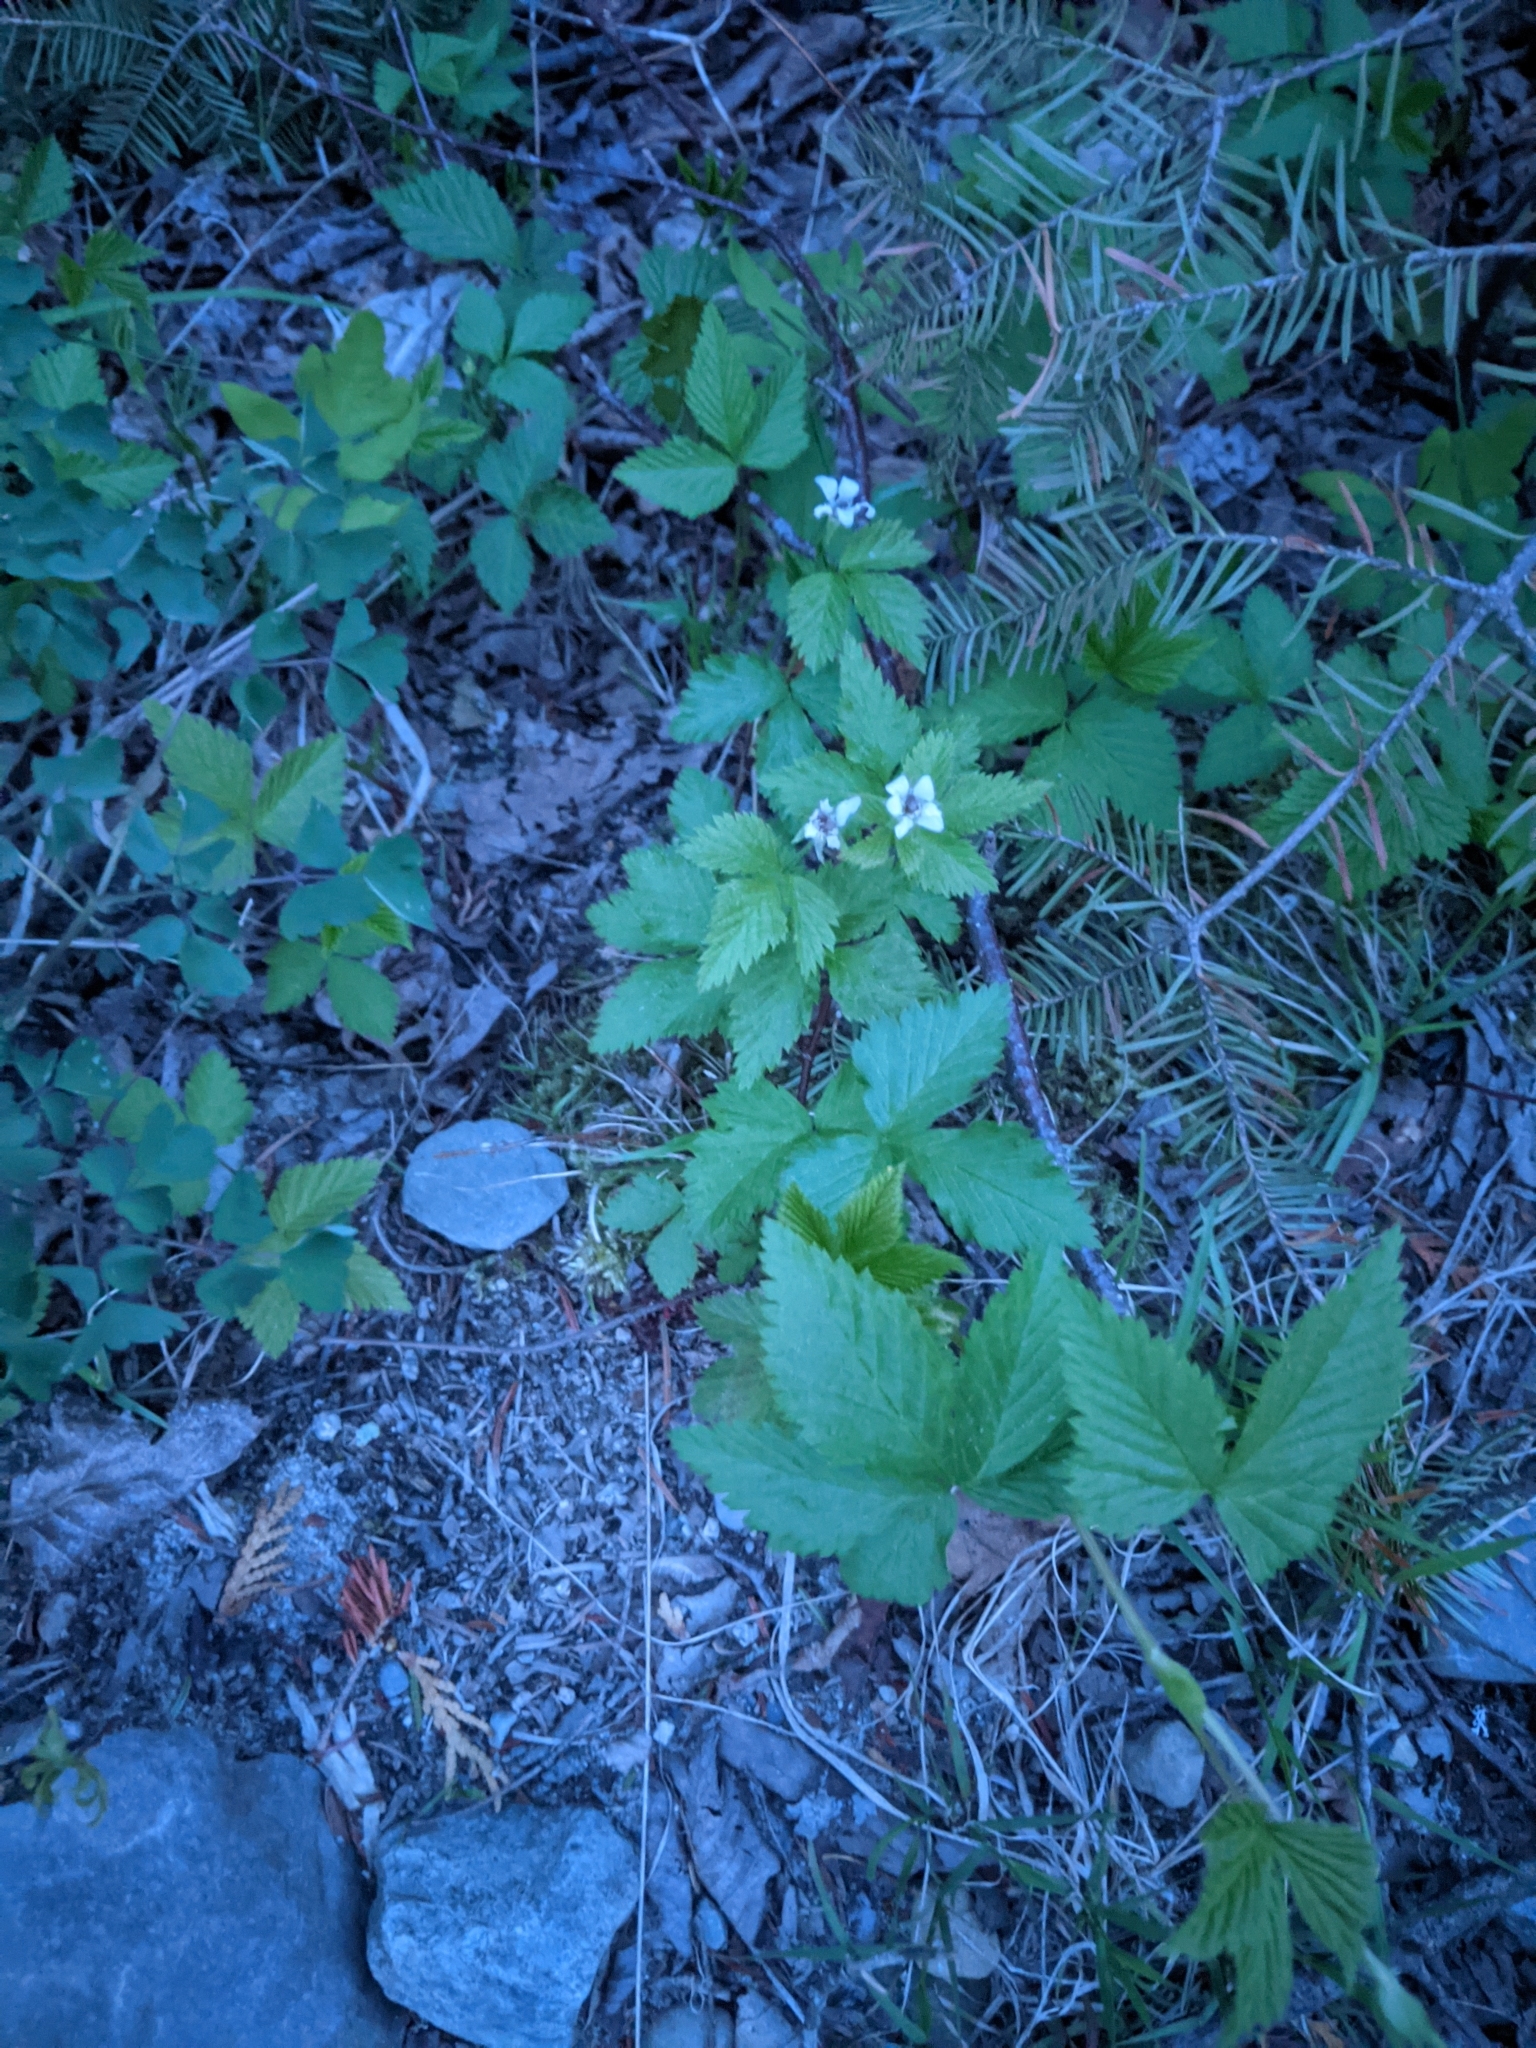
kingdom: Plantae
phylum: Tracheophyta
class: Magnoliopsida
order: Rosales
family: Rosaceae
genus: Rubus
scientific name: Rubus pubescens
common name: Dwarf raspberry
